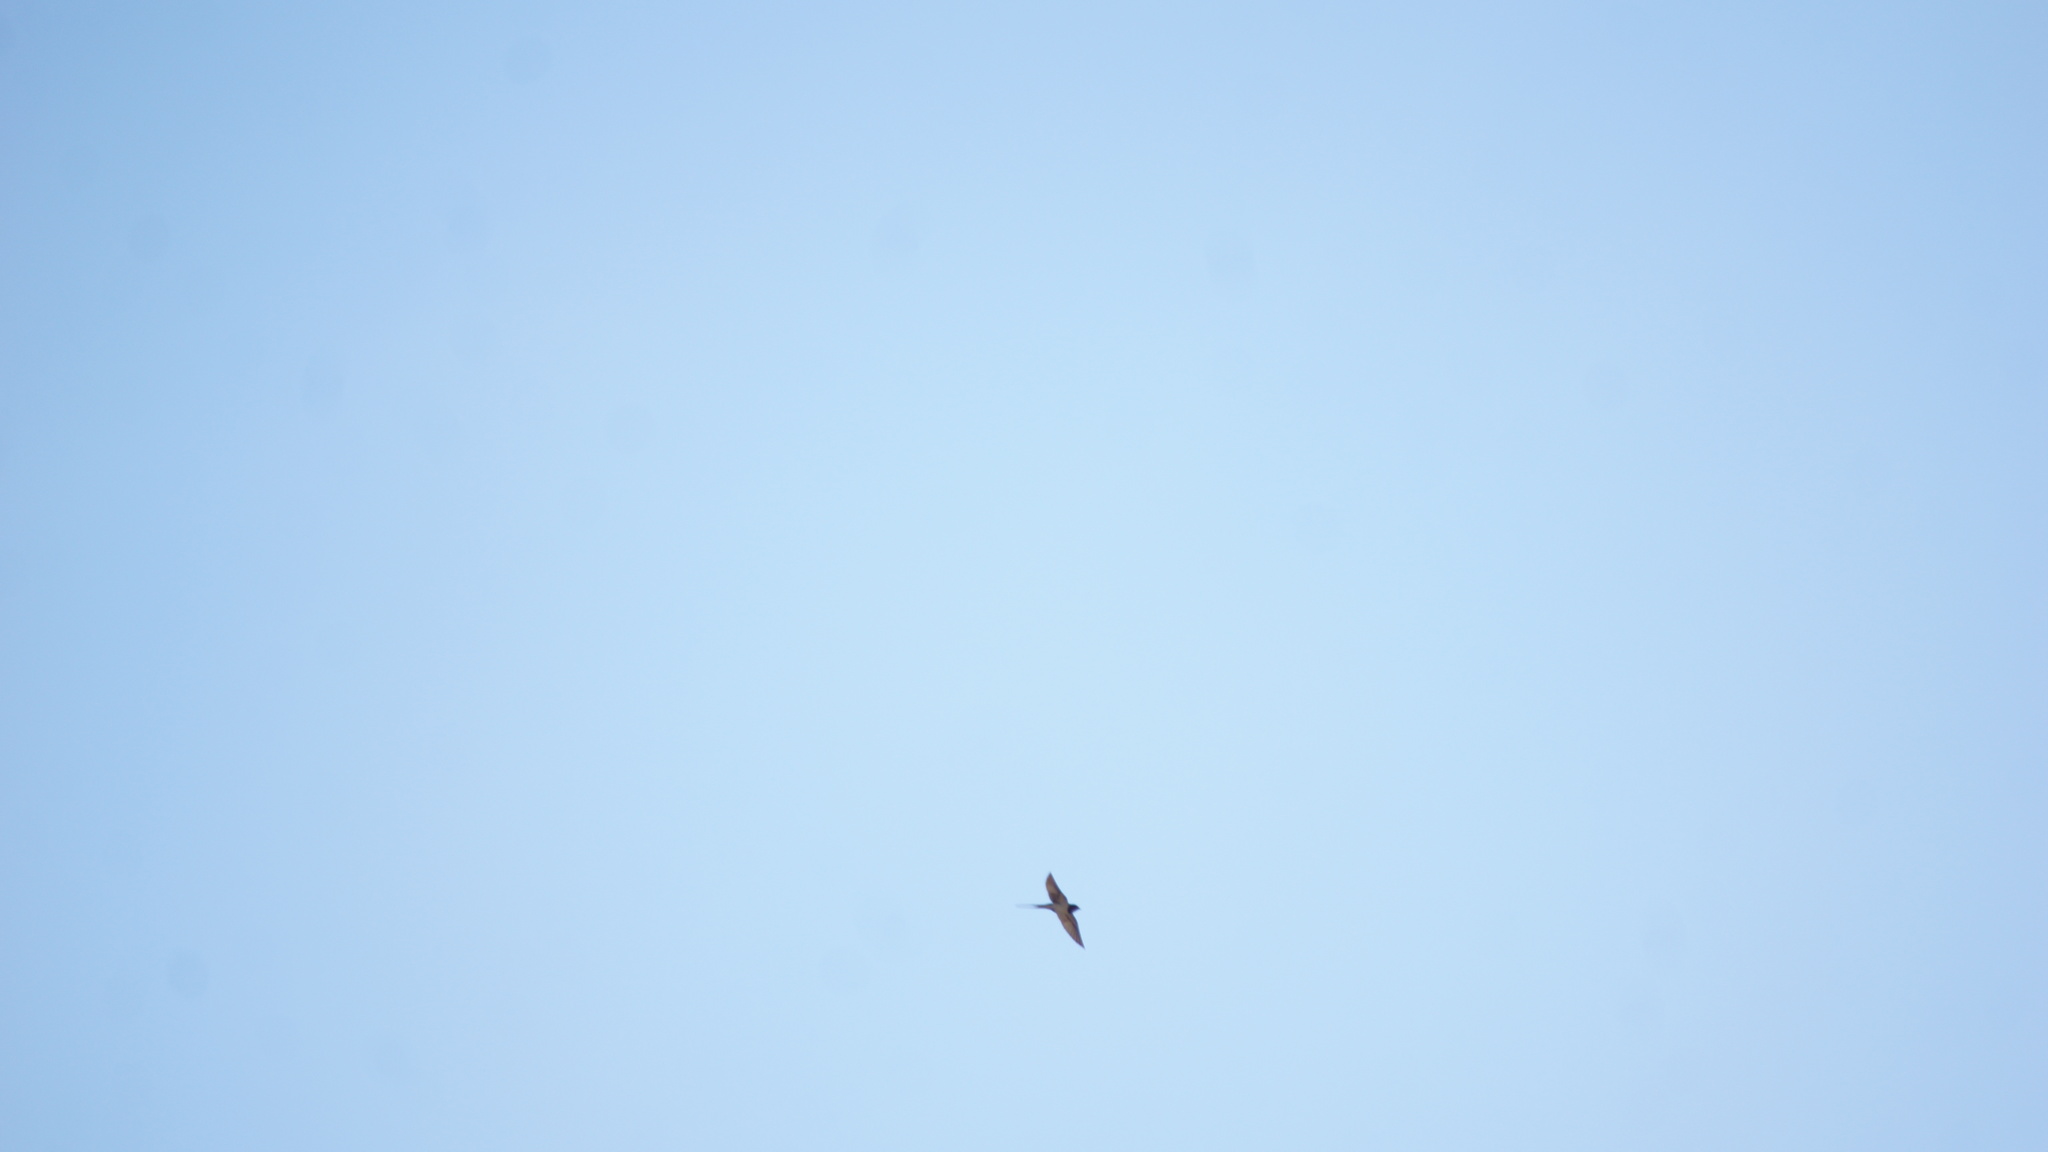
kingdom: Animalia
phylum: Chordata
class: Aves
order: Passeriformes
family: Hirundinidae
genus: Hirundo
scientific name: Hirundo rustica
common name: Barn swallow
